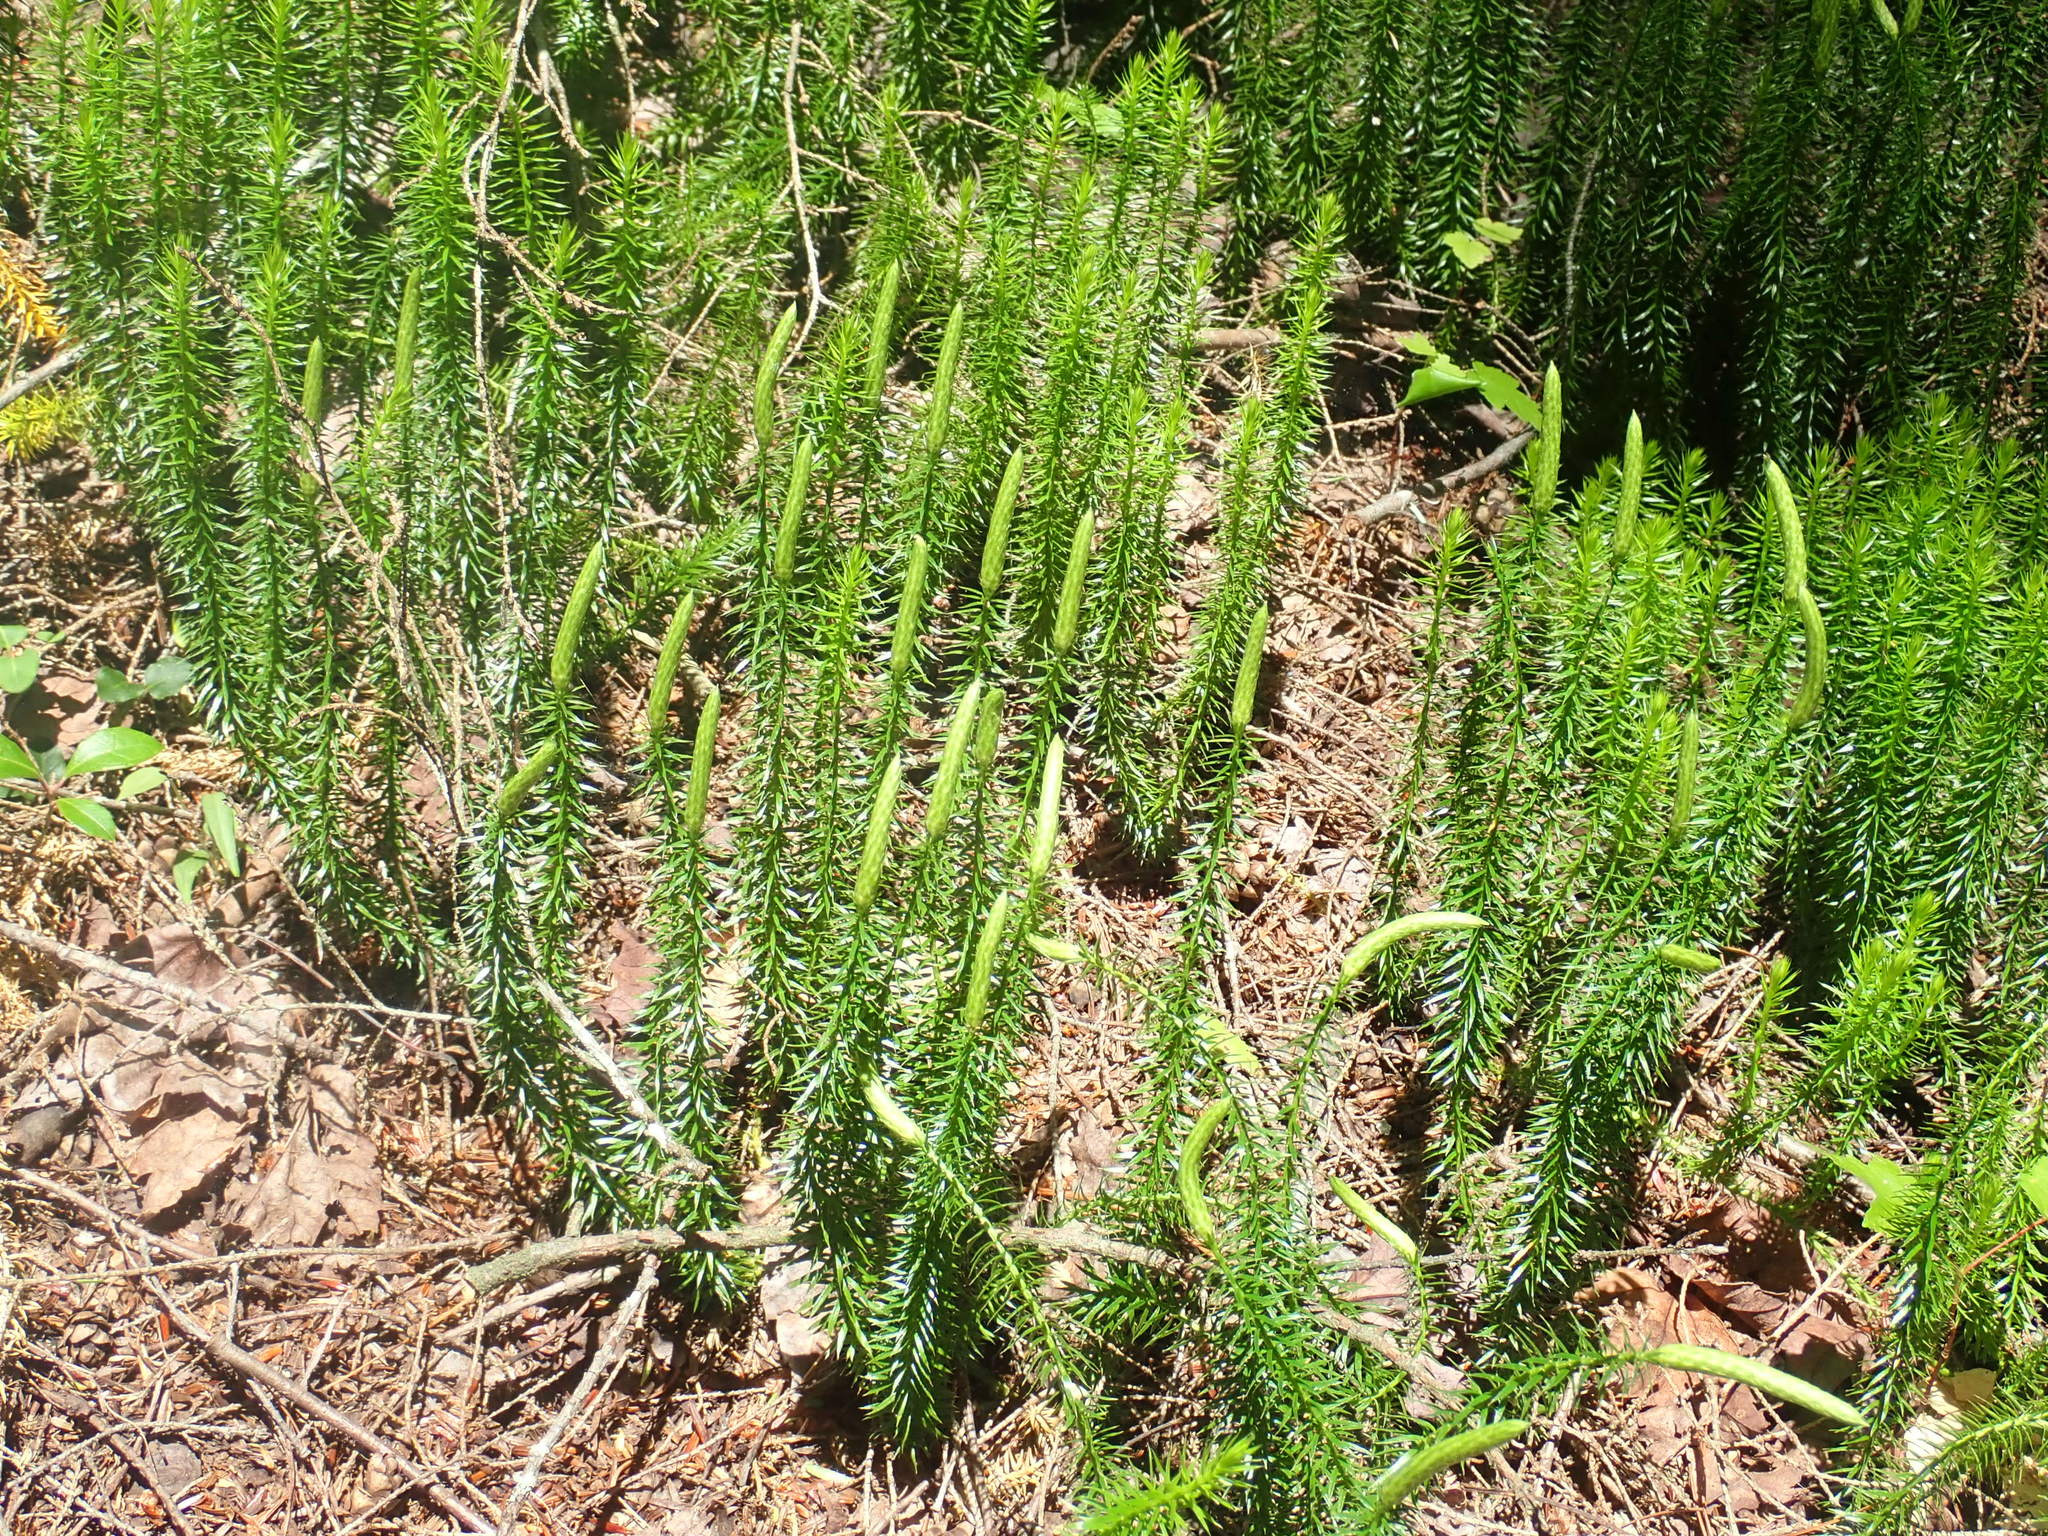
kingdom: Plantae
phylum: Tracheophyta
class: Lycopodiopsida
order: Lycopodiales
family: Lycopodiaceae
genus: Spinulum
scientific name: Spinulum annotinum
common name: Interrupted club-moss
